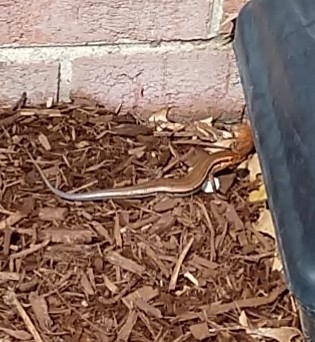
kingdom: Animalia
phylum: Chordata
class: Squamata
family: Scincidae
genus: Plestiodon
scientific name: Plestiodon laticeps
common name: Broadhead skink
